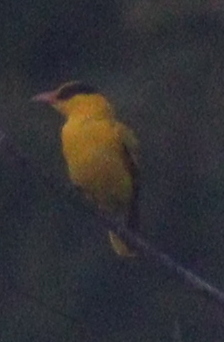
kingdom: Animalia
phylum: Chordata
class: Aves
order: Passeriformes
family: Oriolidae
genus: Oriolus
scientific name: Oriolus chinensis
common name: Black-naped oriole
